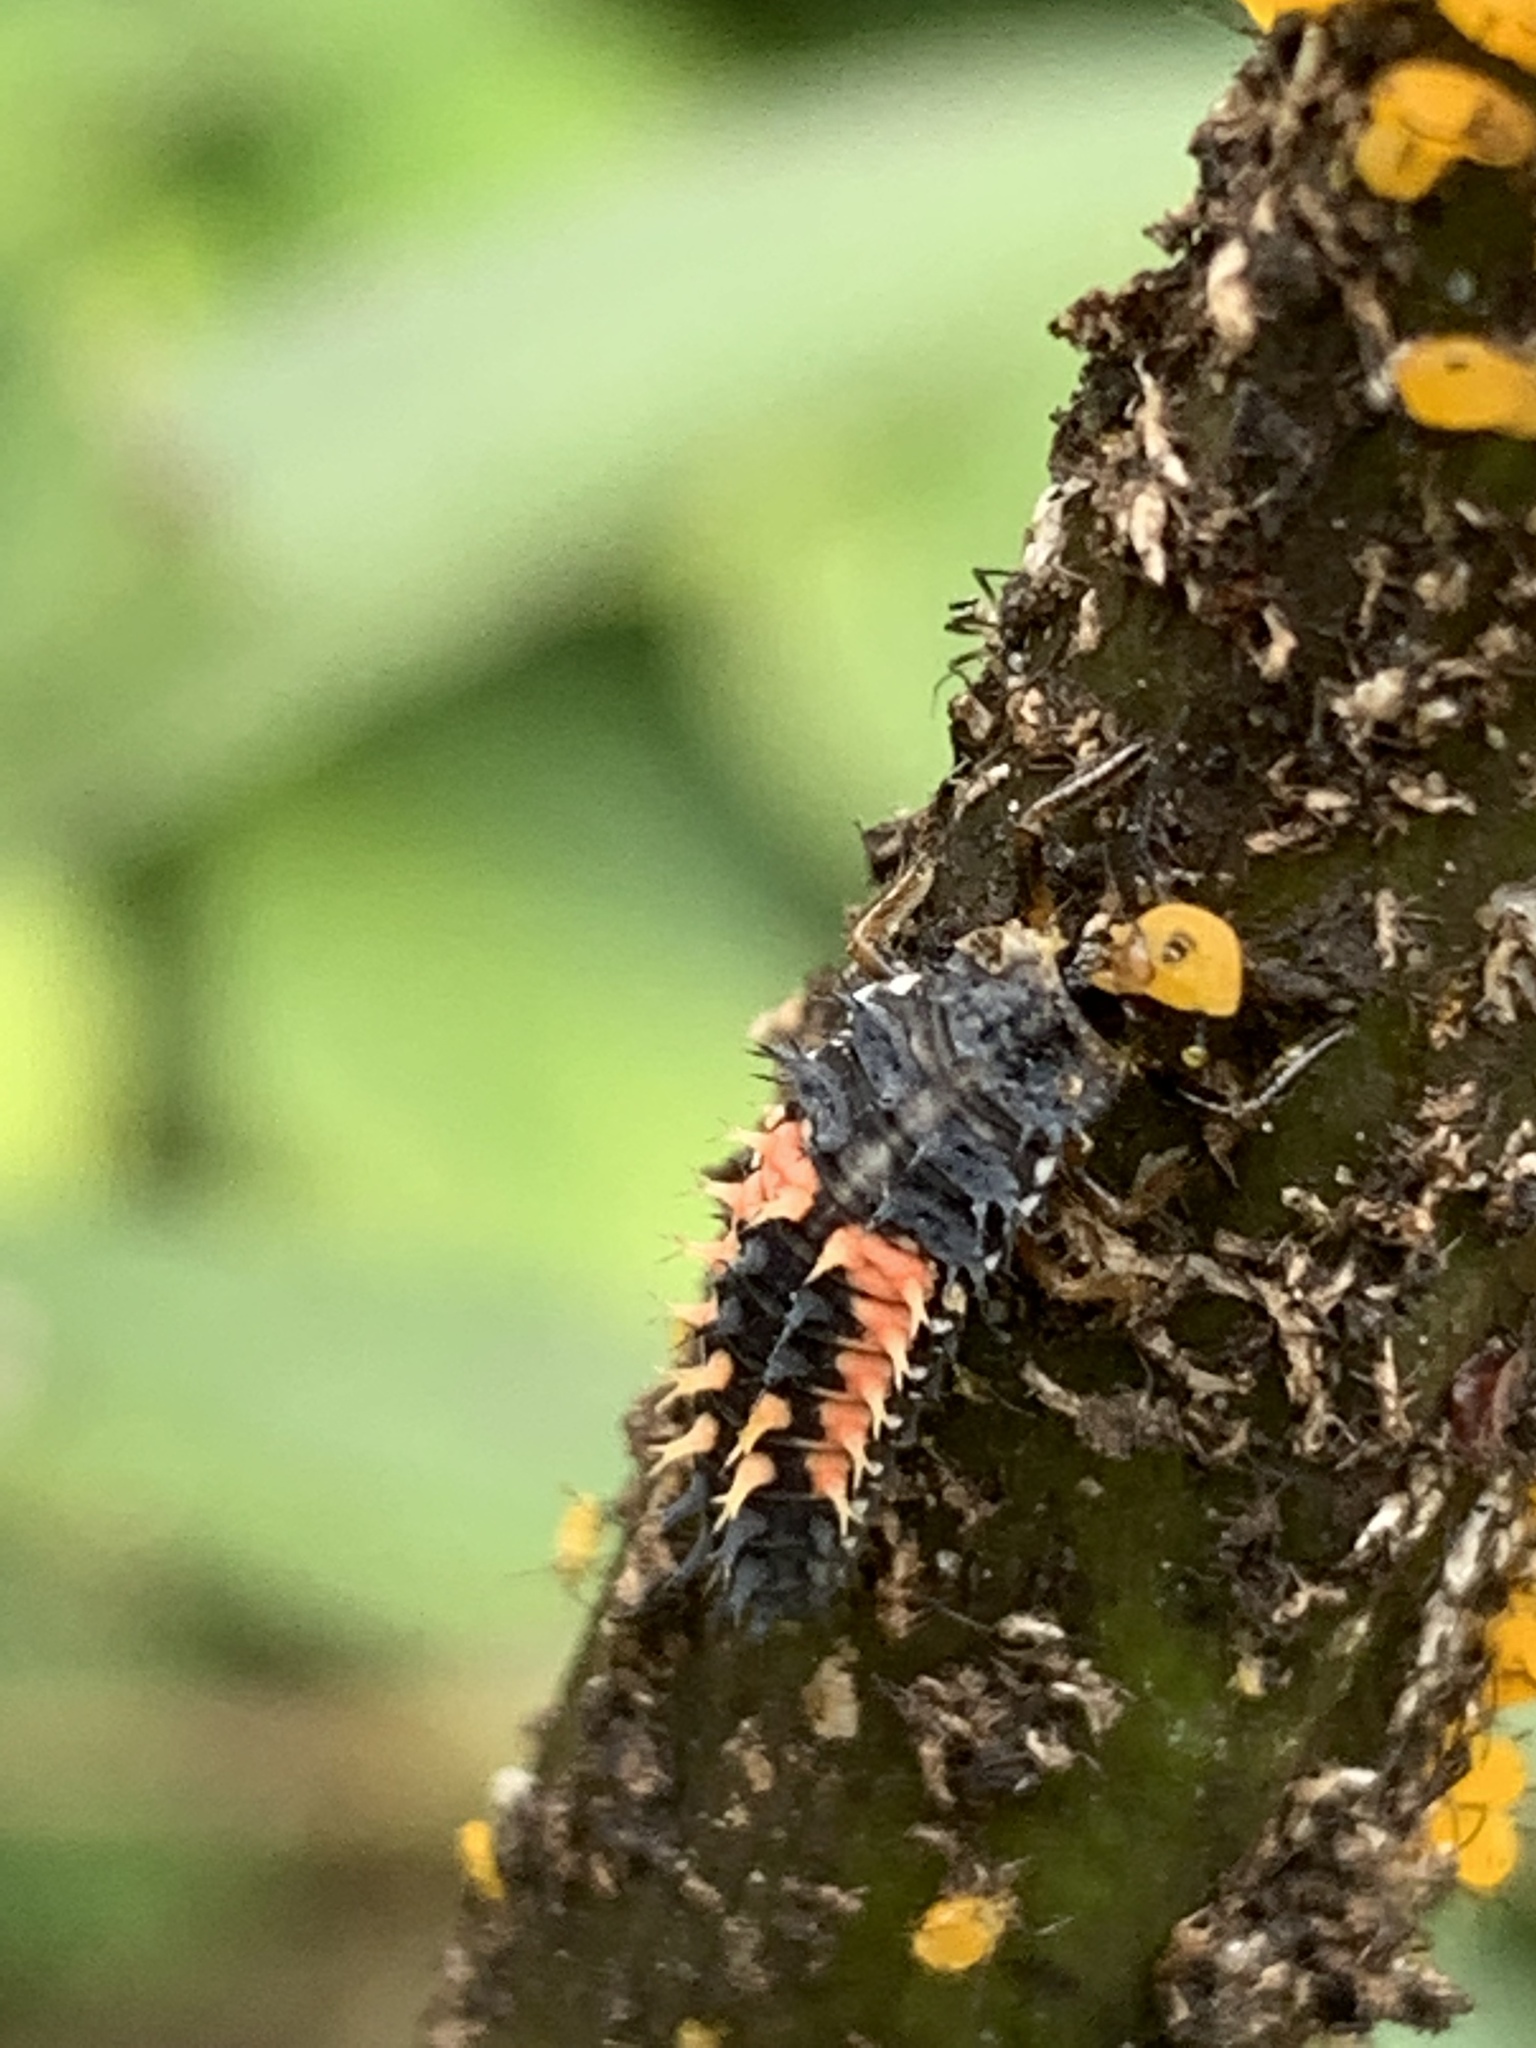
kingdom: Animalia
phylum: Arthropoda
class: Insecta
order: Coleoptera
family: Coccinellidae
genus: Harmonia
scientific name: Harmonia axyridis
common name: Harlequin ladybird
